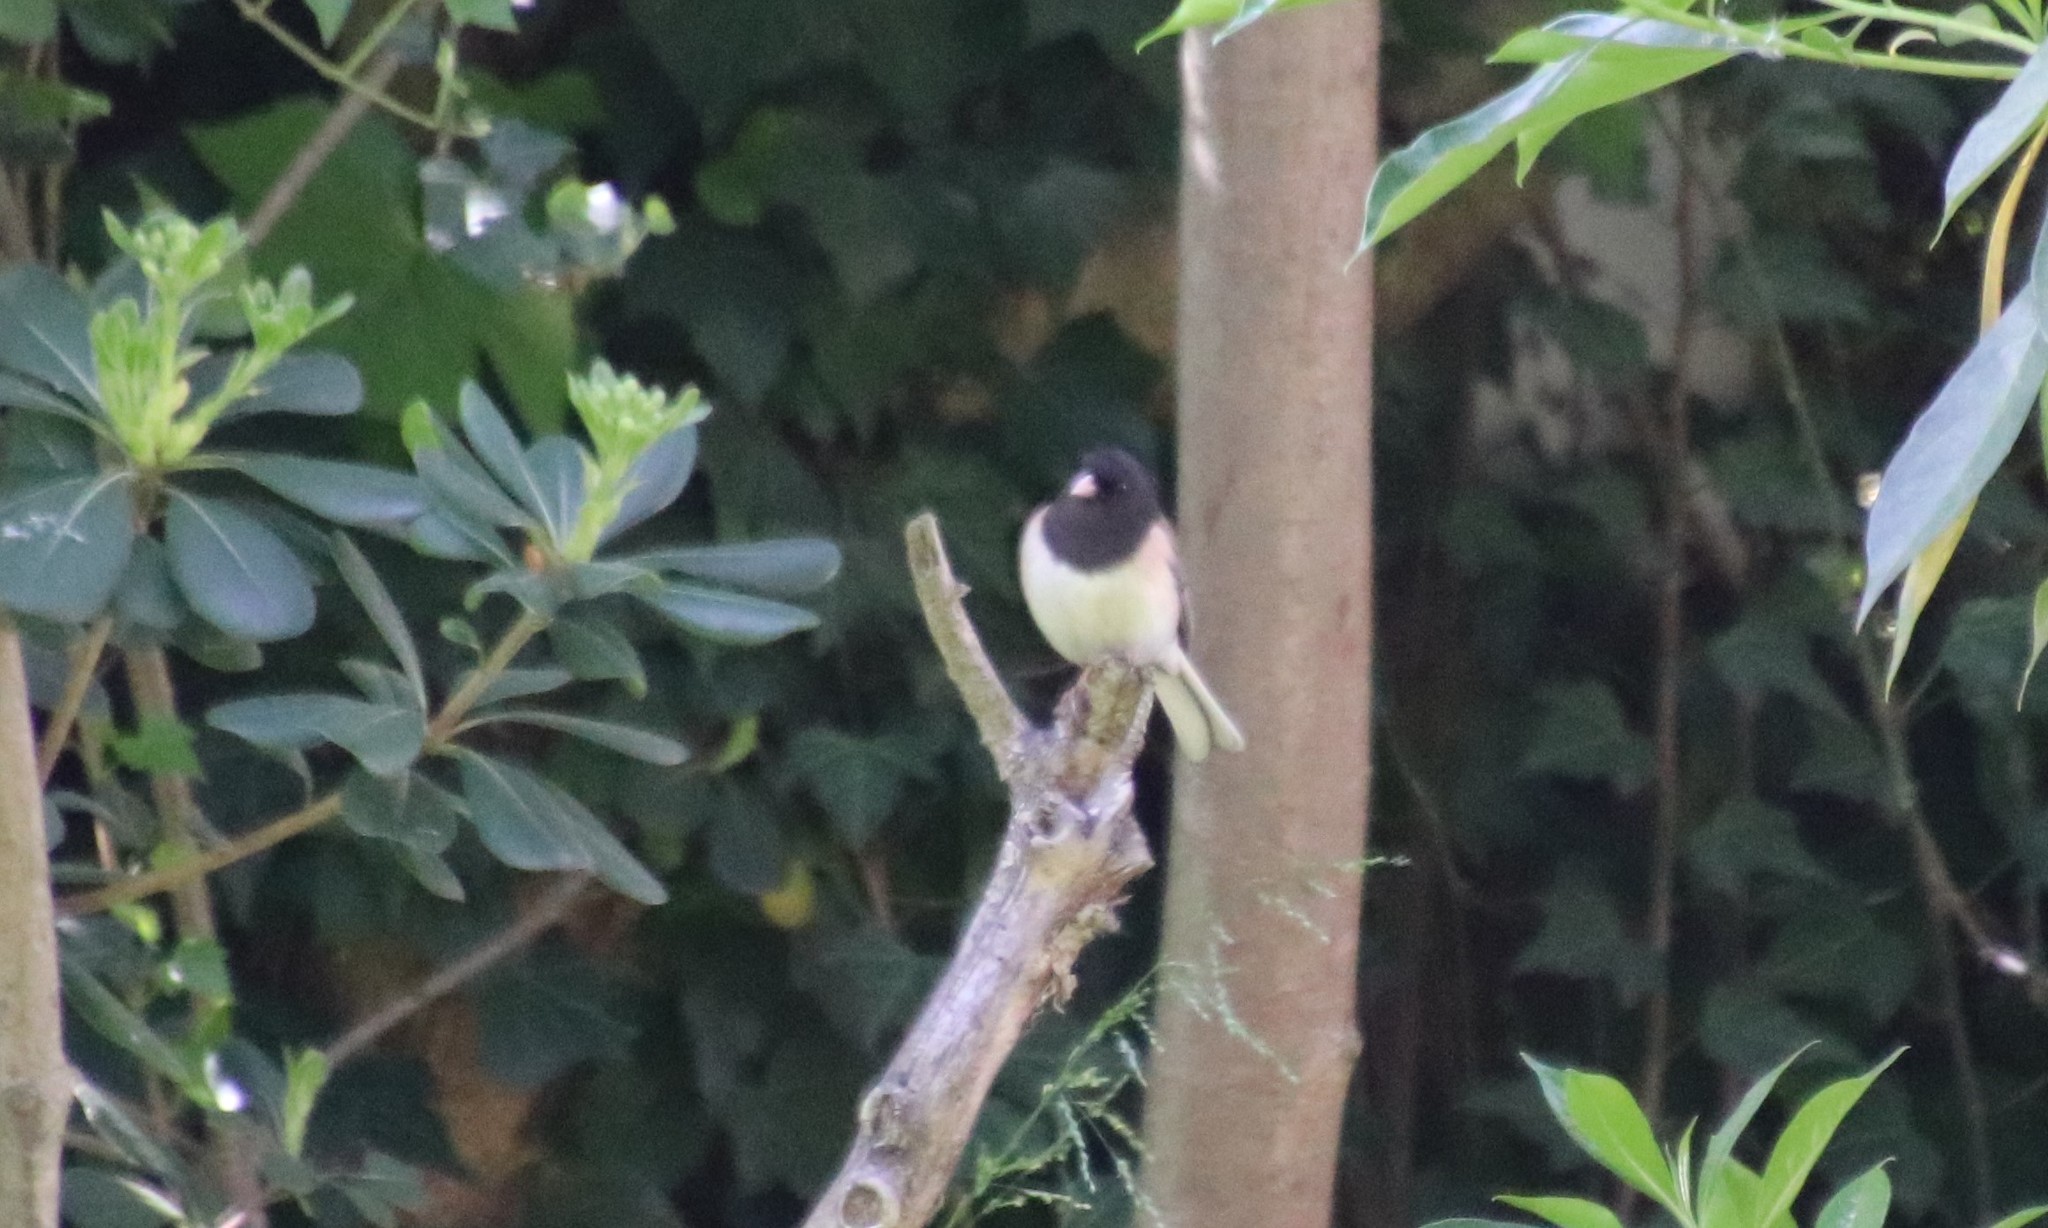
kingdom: Animalia
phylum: Chordata
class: Aves
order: Passeriformes
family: Passerellidae
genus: Junco
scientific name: Junco hyemalis
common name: Dark-eyed junco
